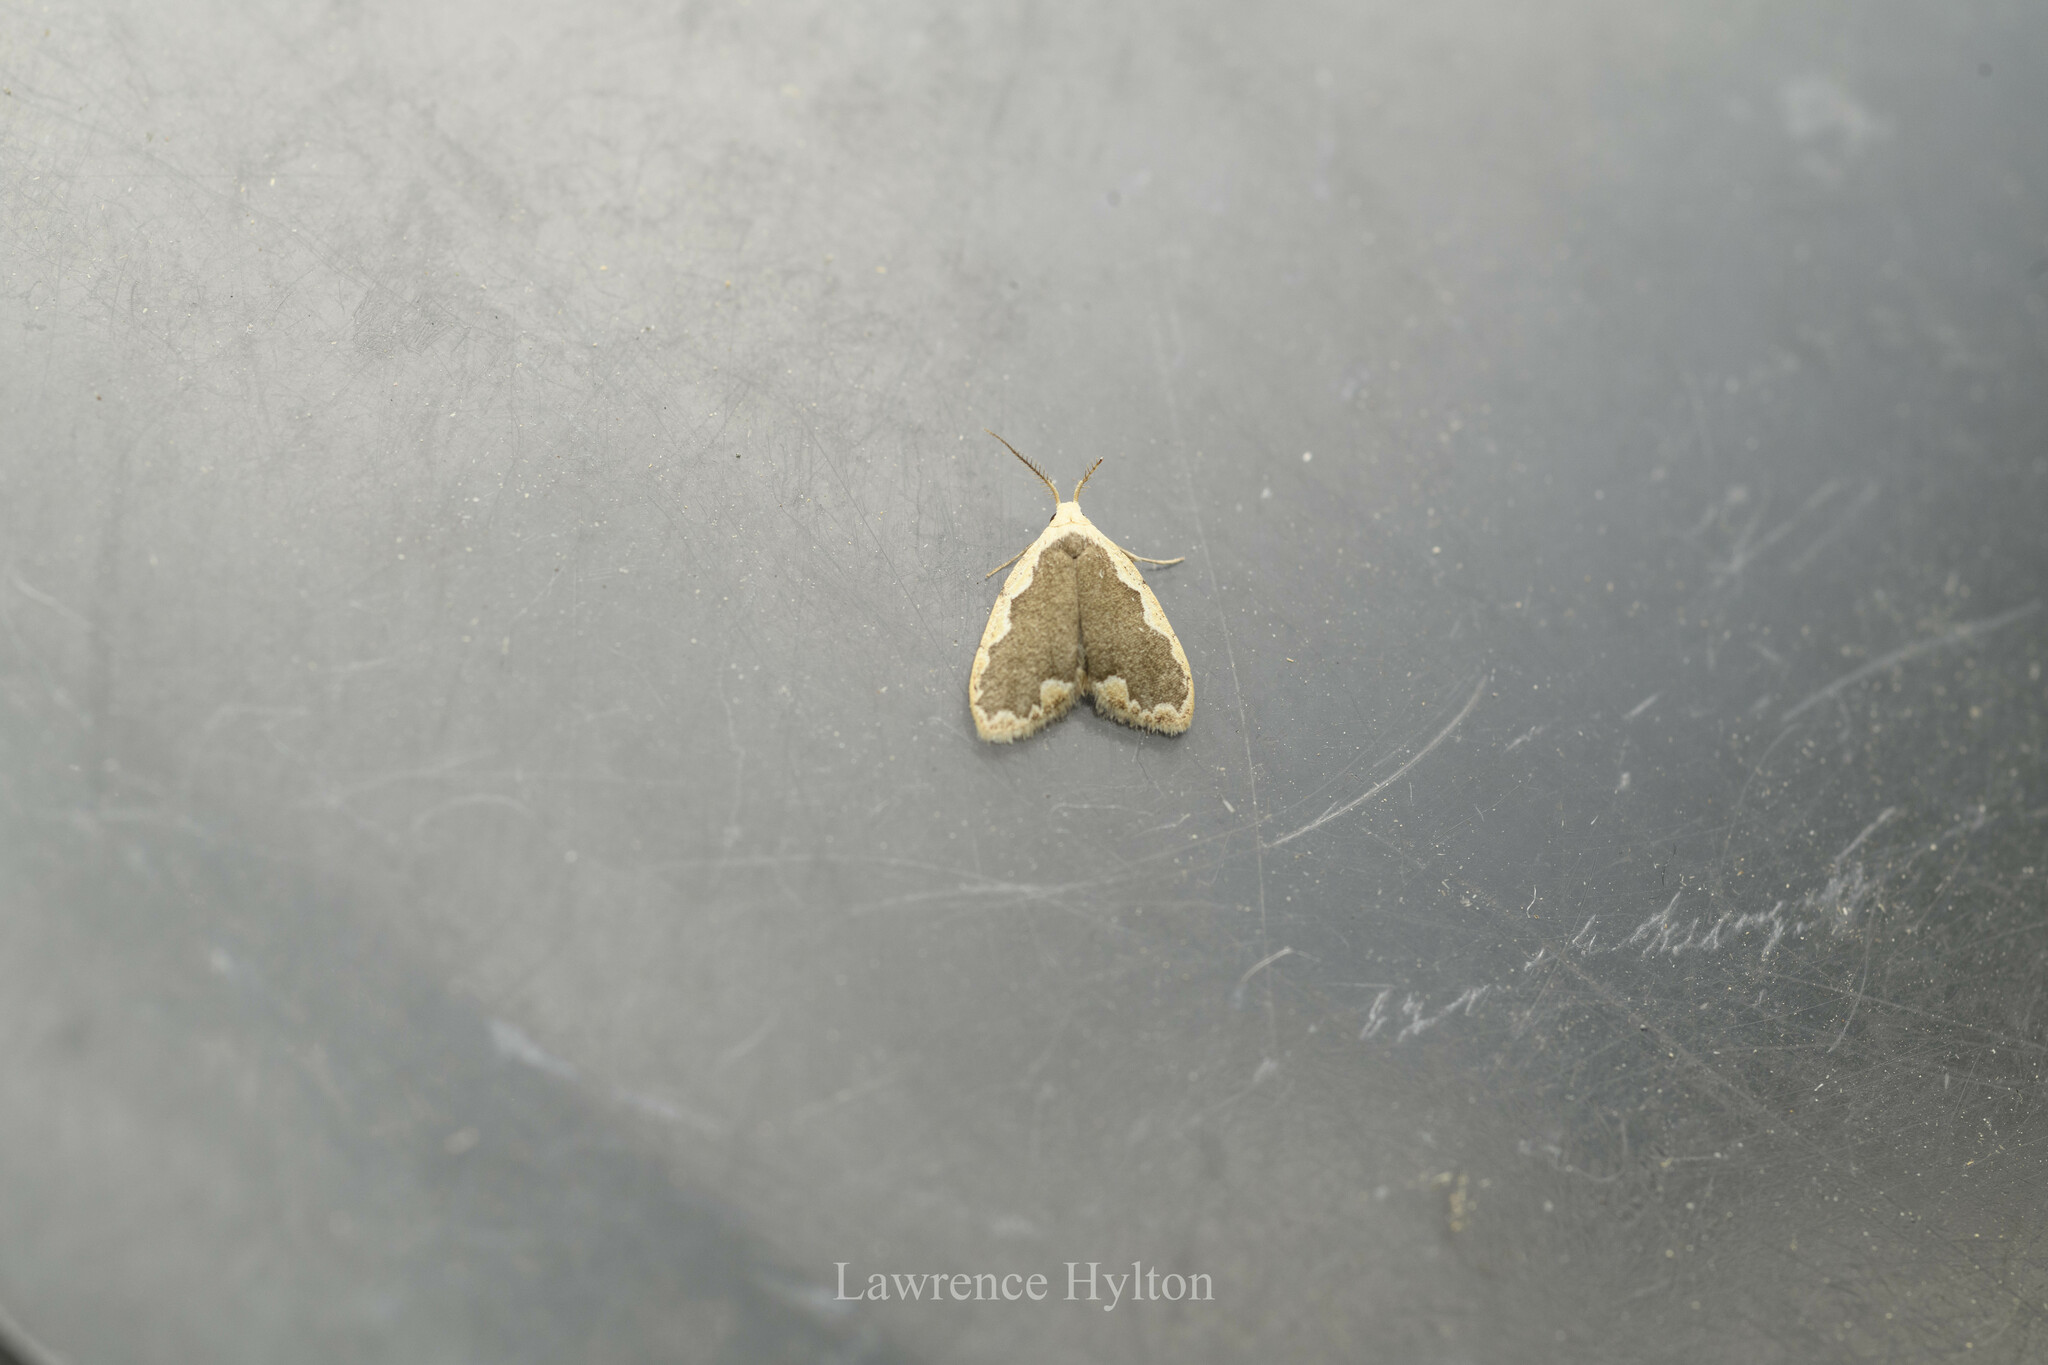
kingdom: Animalia
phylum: Arthropoda
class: Insecta
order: Lepidoptera
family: Erebidae
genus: Diduga
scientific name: Diduga flavicostata
